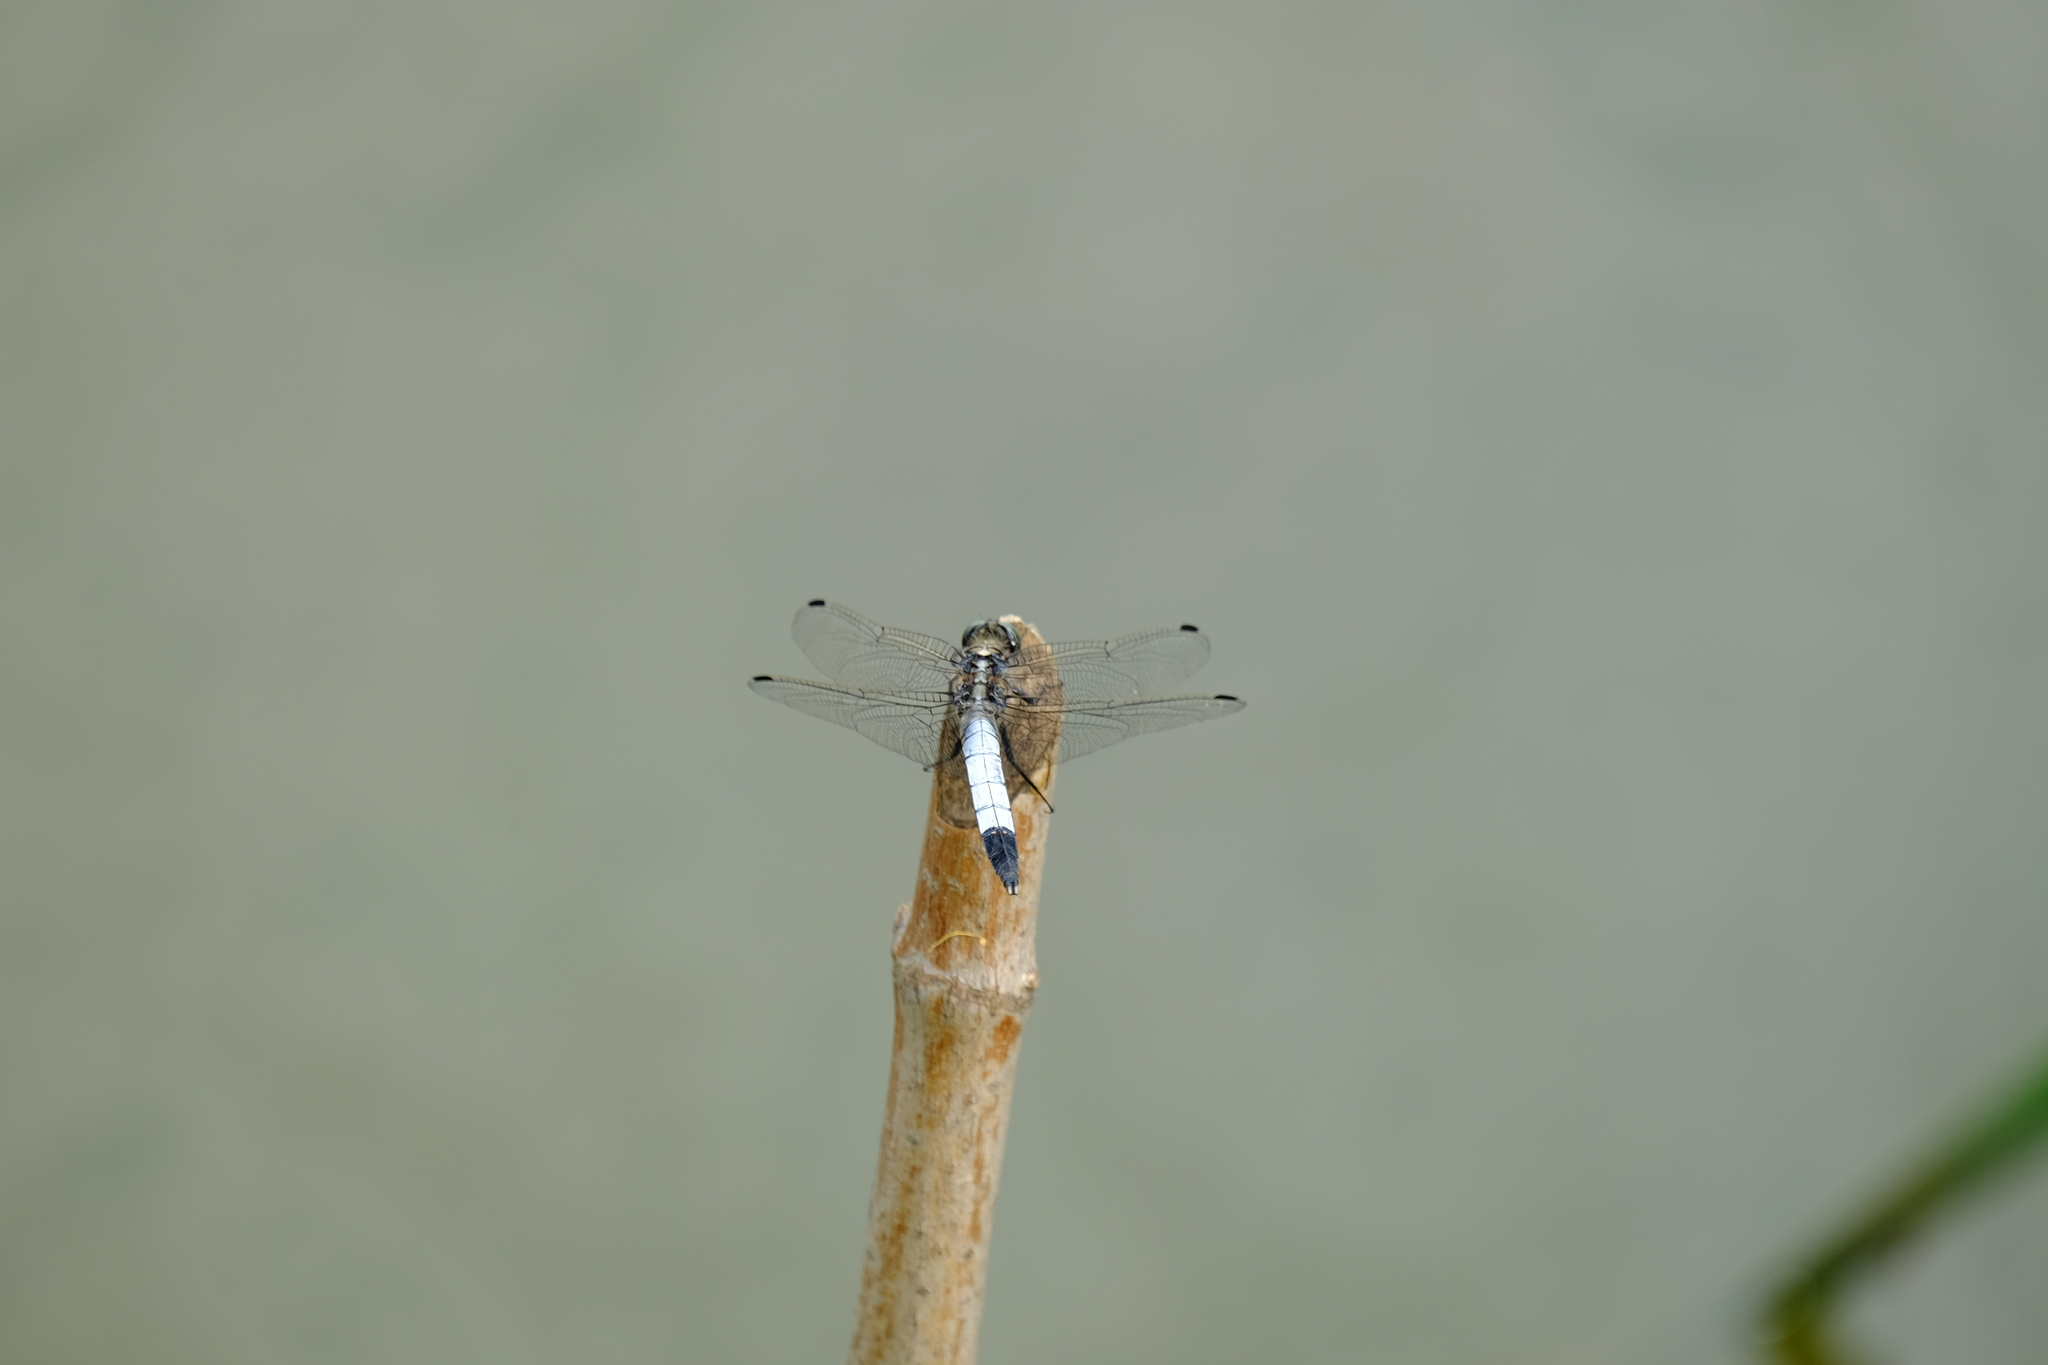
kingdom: Animalia
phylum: Arthropoda
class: Insecta
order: Odonata
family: Libellulidae
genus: Orthetrum
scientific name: Orthetrum albistylum
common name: White-tailed skimmer
